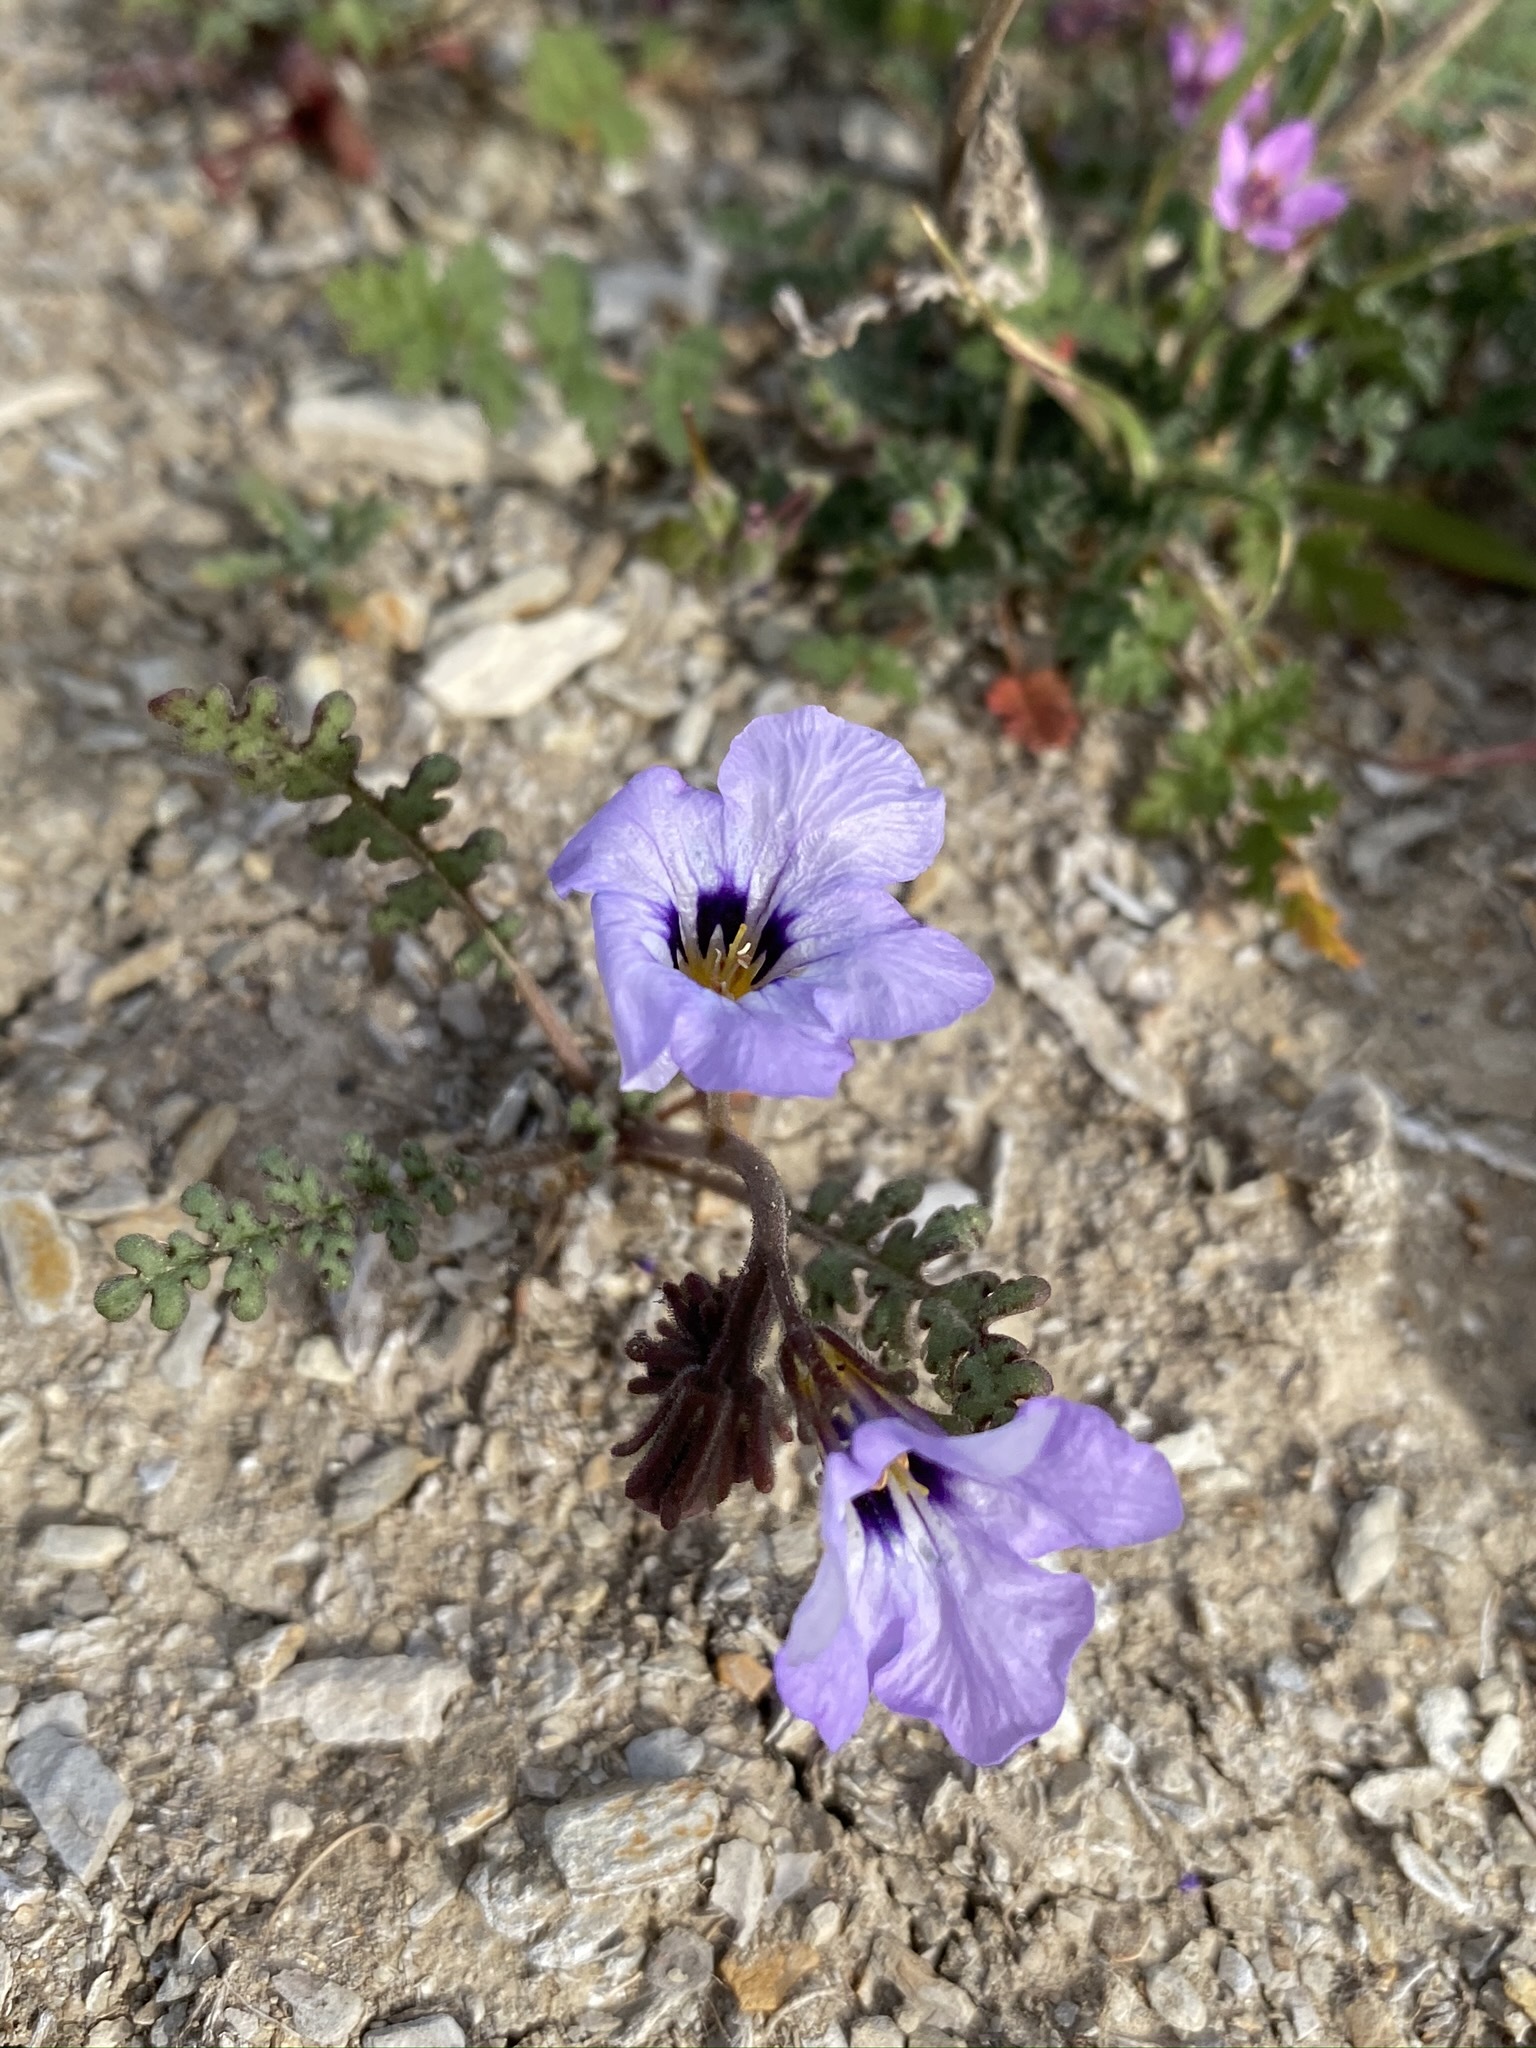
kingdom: Plantae
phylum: Tracheophyta
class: Magnoliopsida
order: Boraginales
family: Hydrophyllaceae
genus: Phacelia
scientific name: Phacelia fremontii
